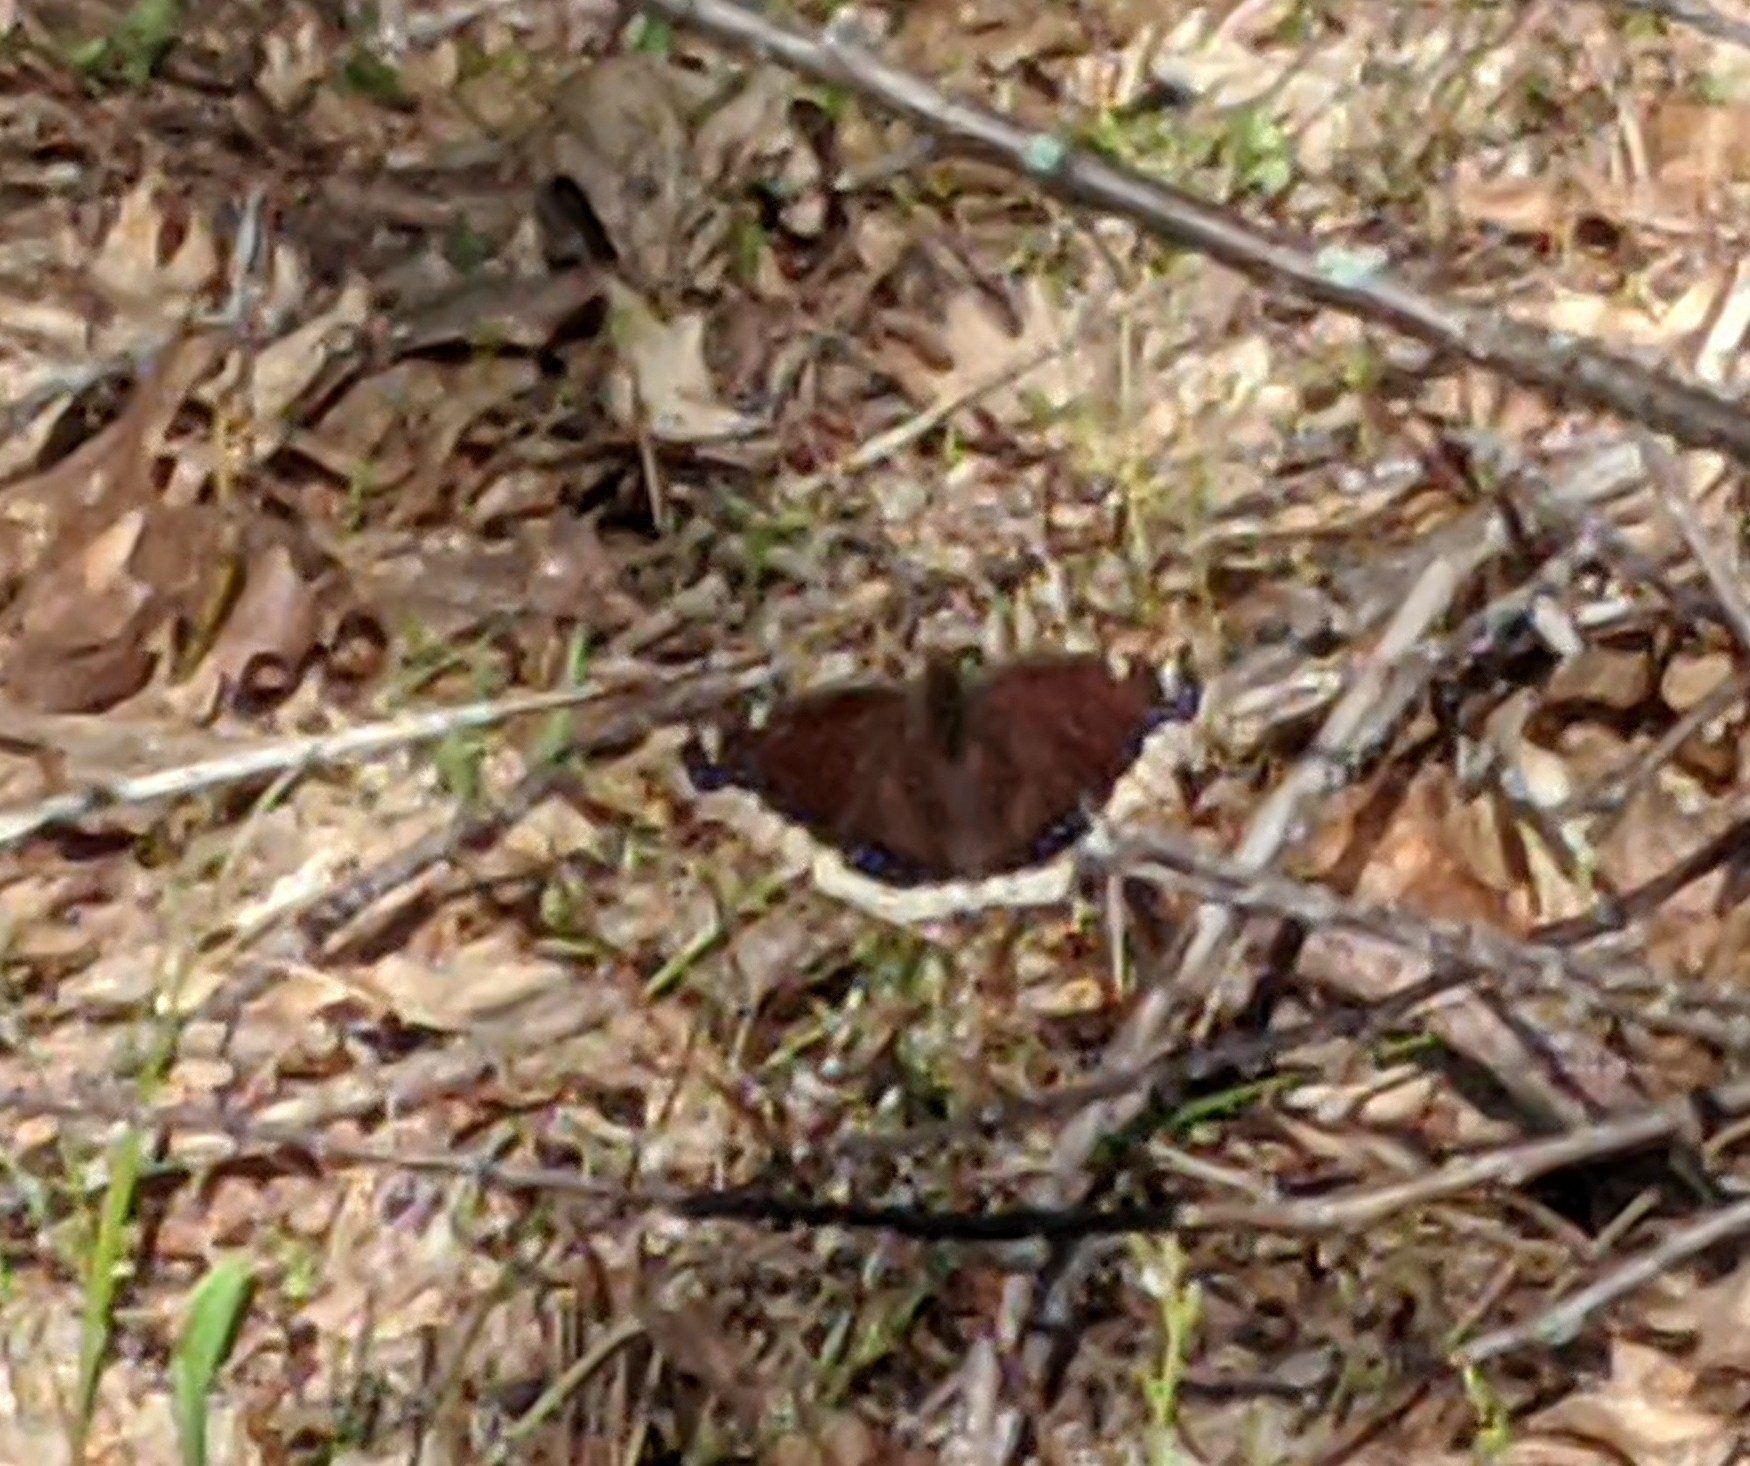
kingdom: Animalia
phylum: Arthropoda
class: Insecta
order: Lepidoptera
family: Nymphalidae
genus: Nymphalis
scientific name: Nymphalis antiopa
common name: Camberwell beauty
